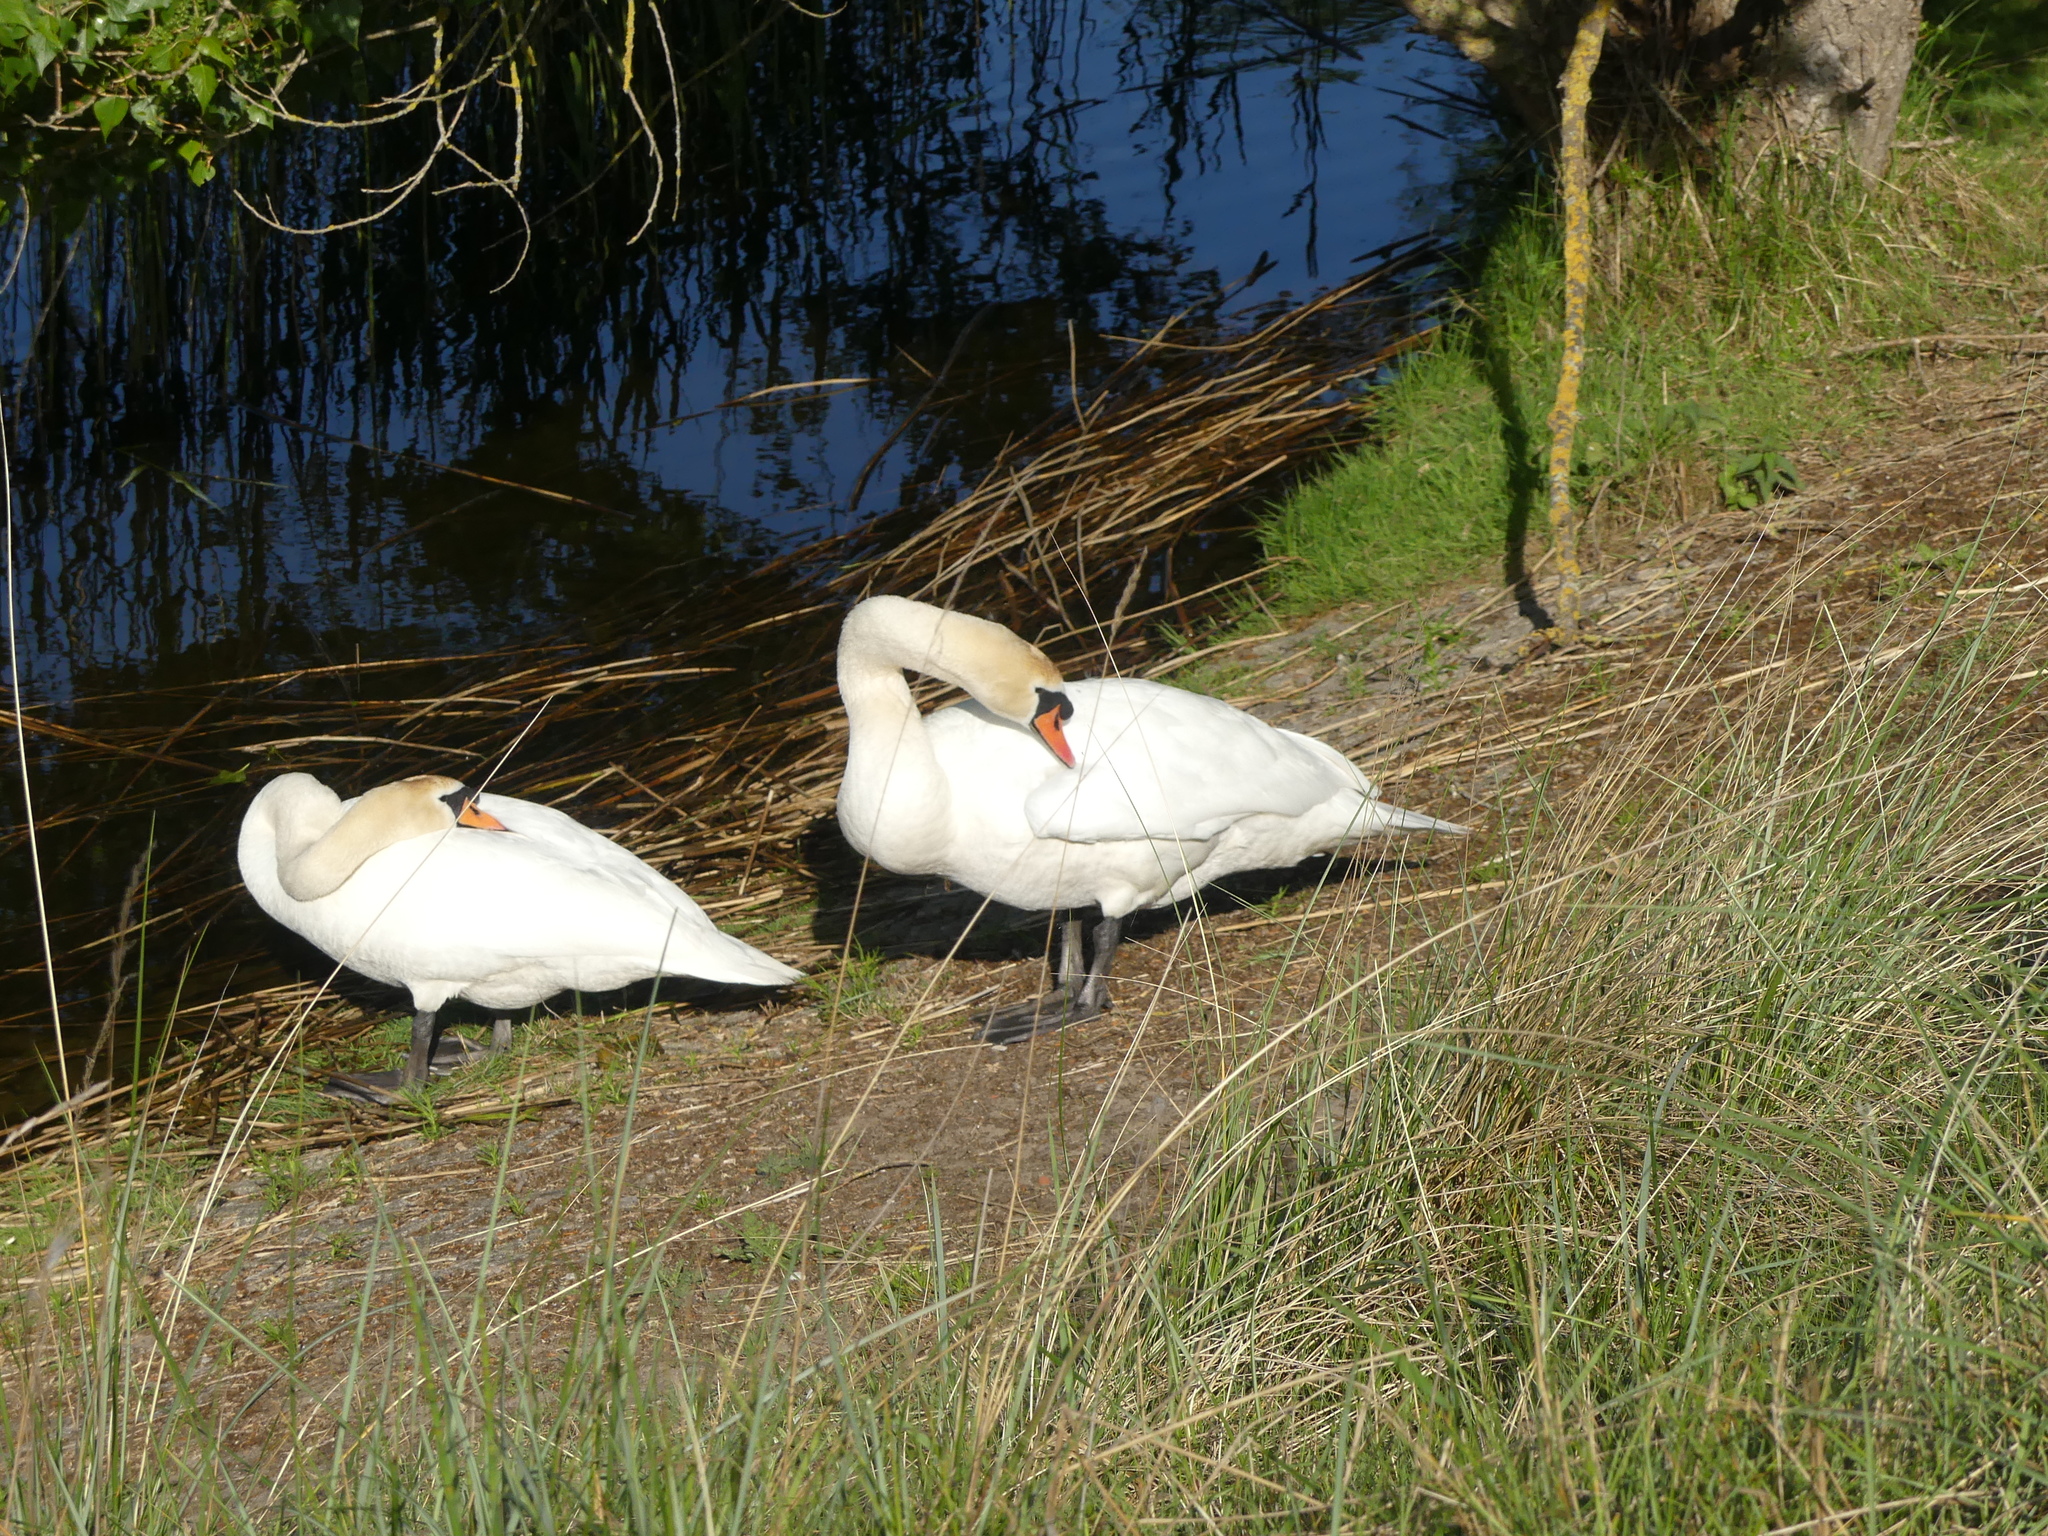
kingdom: Animalia
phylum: Chordata
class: Aves
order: Anseriformes
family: Anatidae
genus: Cygnus
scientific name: Cygnus olor
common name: Mute swan
